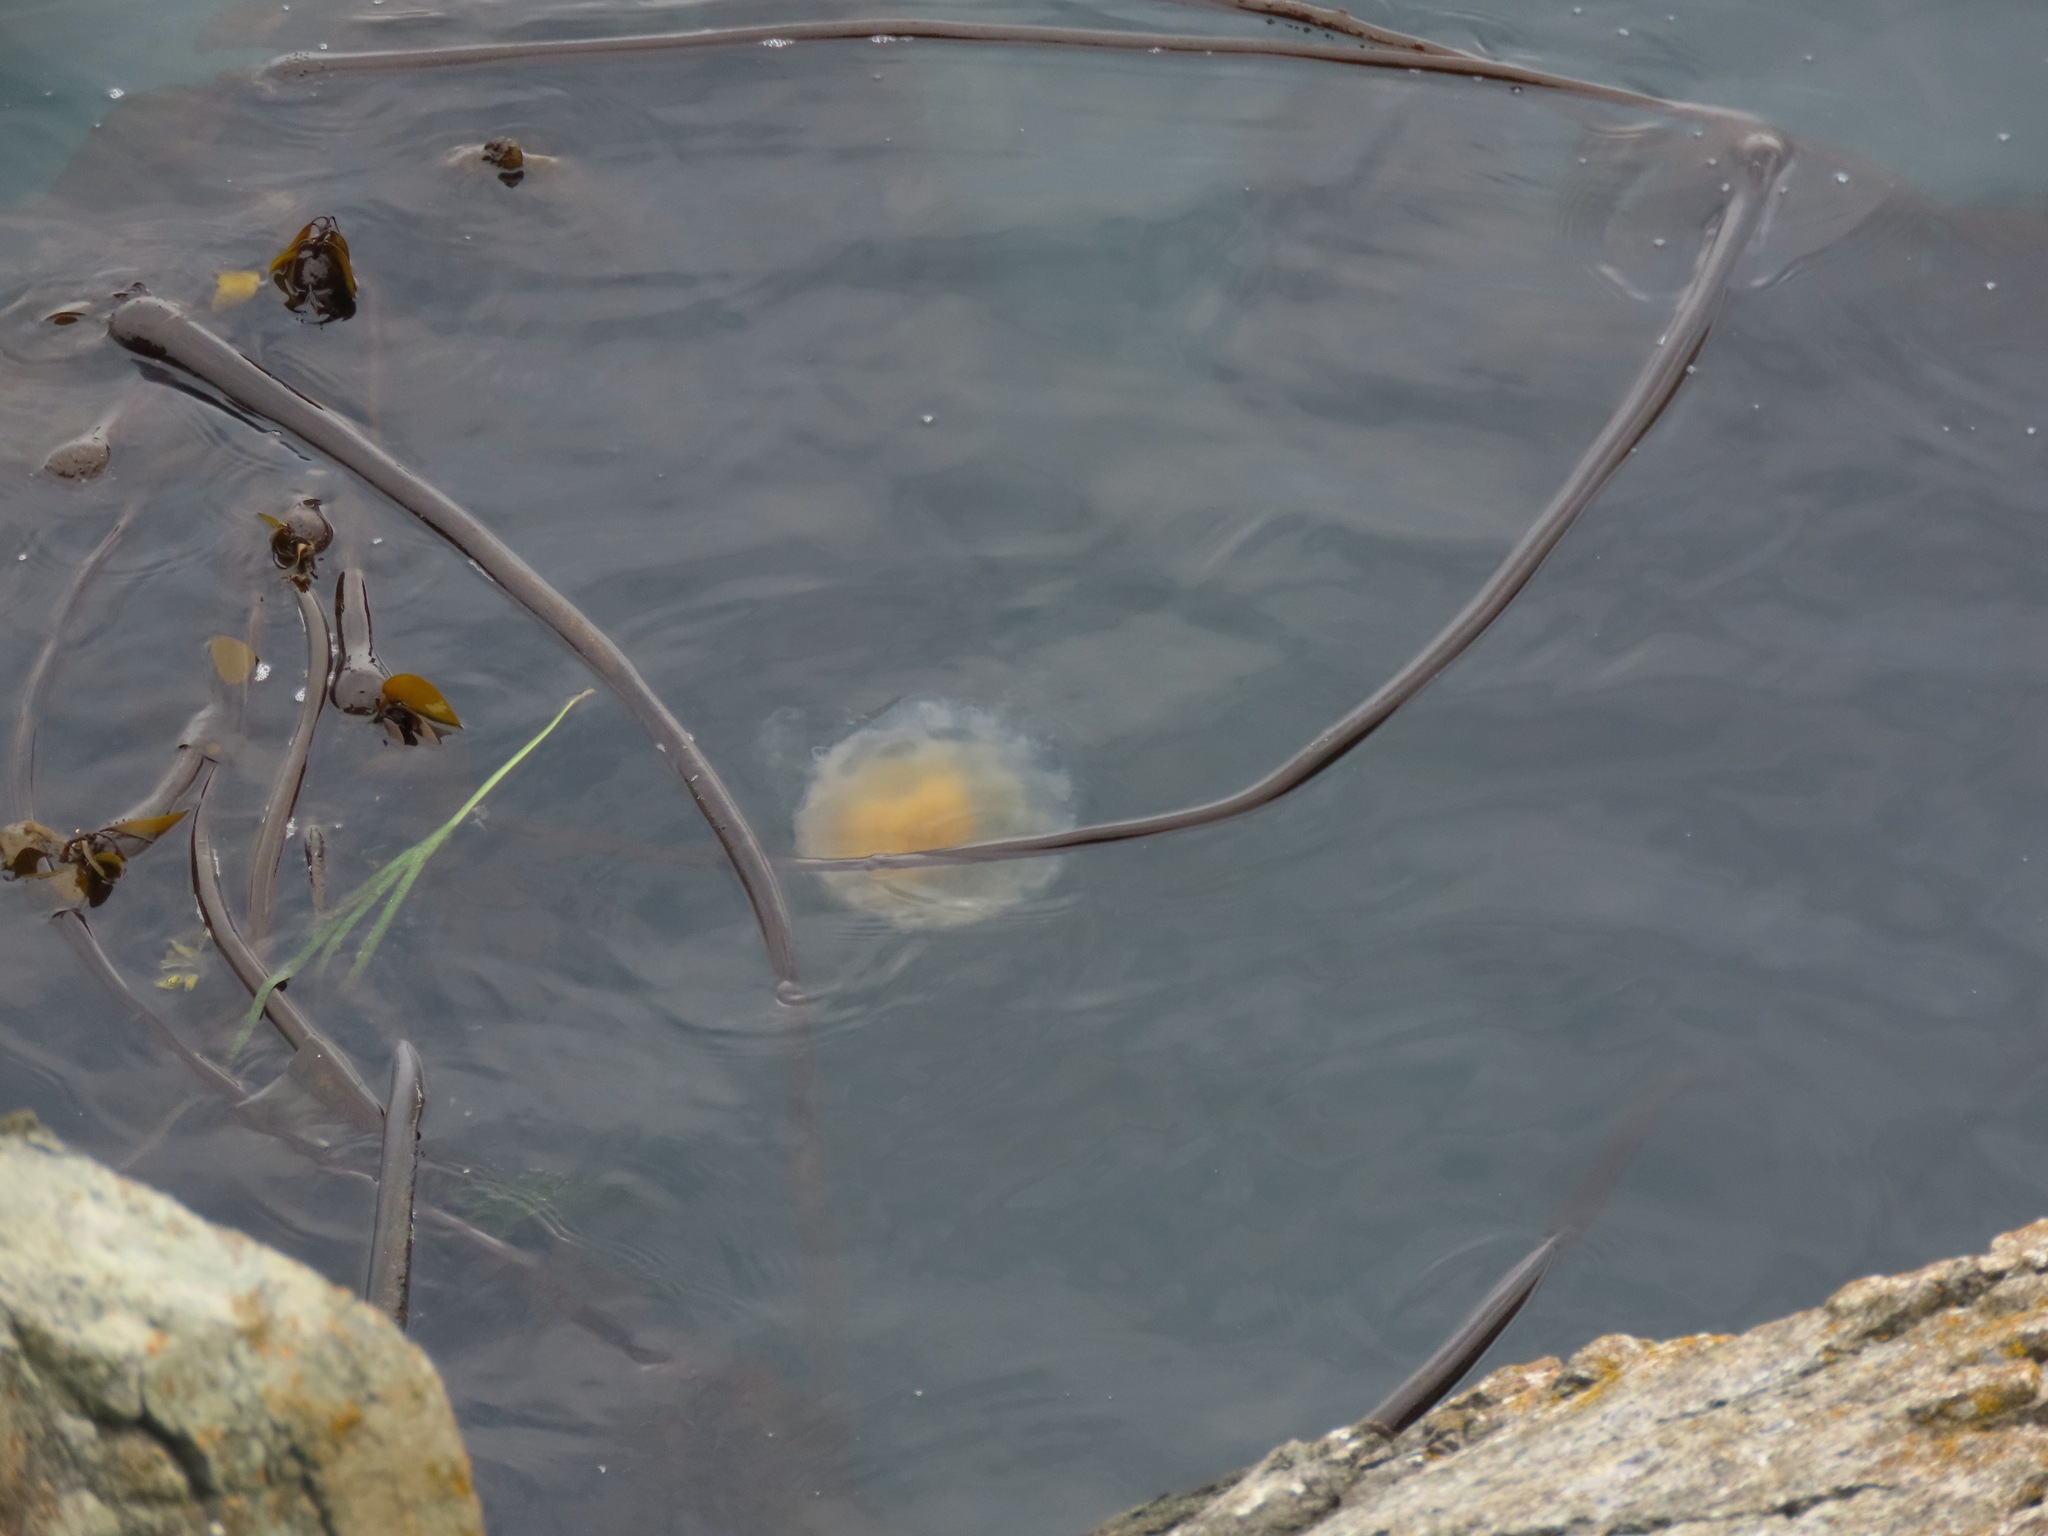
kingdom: Animalia
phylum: Cnidaria
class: Scyphozoa
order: Semaeostomeae
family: Phacellophoridae
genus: Phacellophora
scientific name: Phacellophora camtschatica
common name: Fried-egg jellyfish
